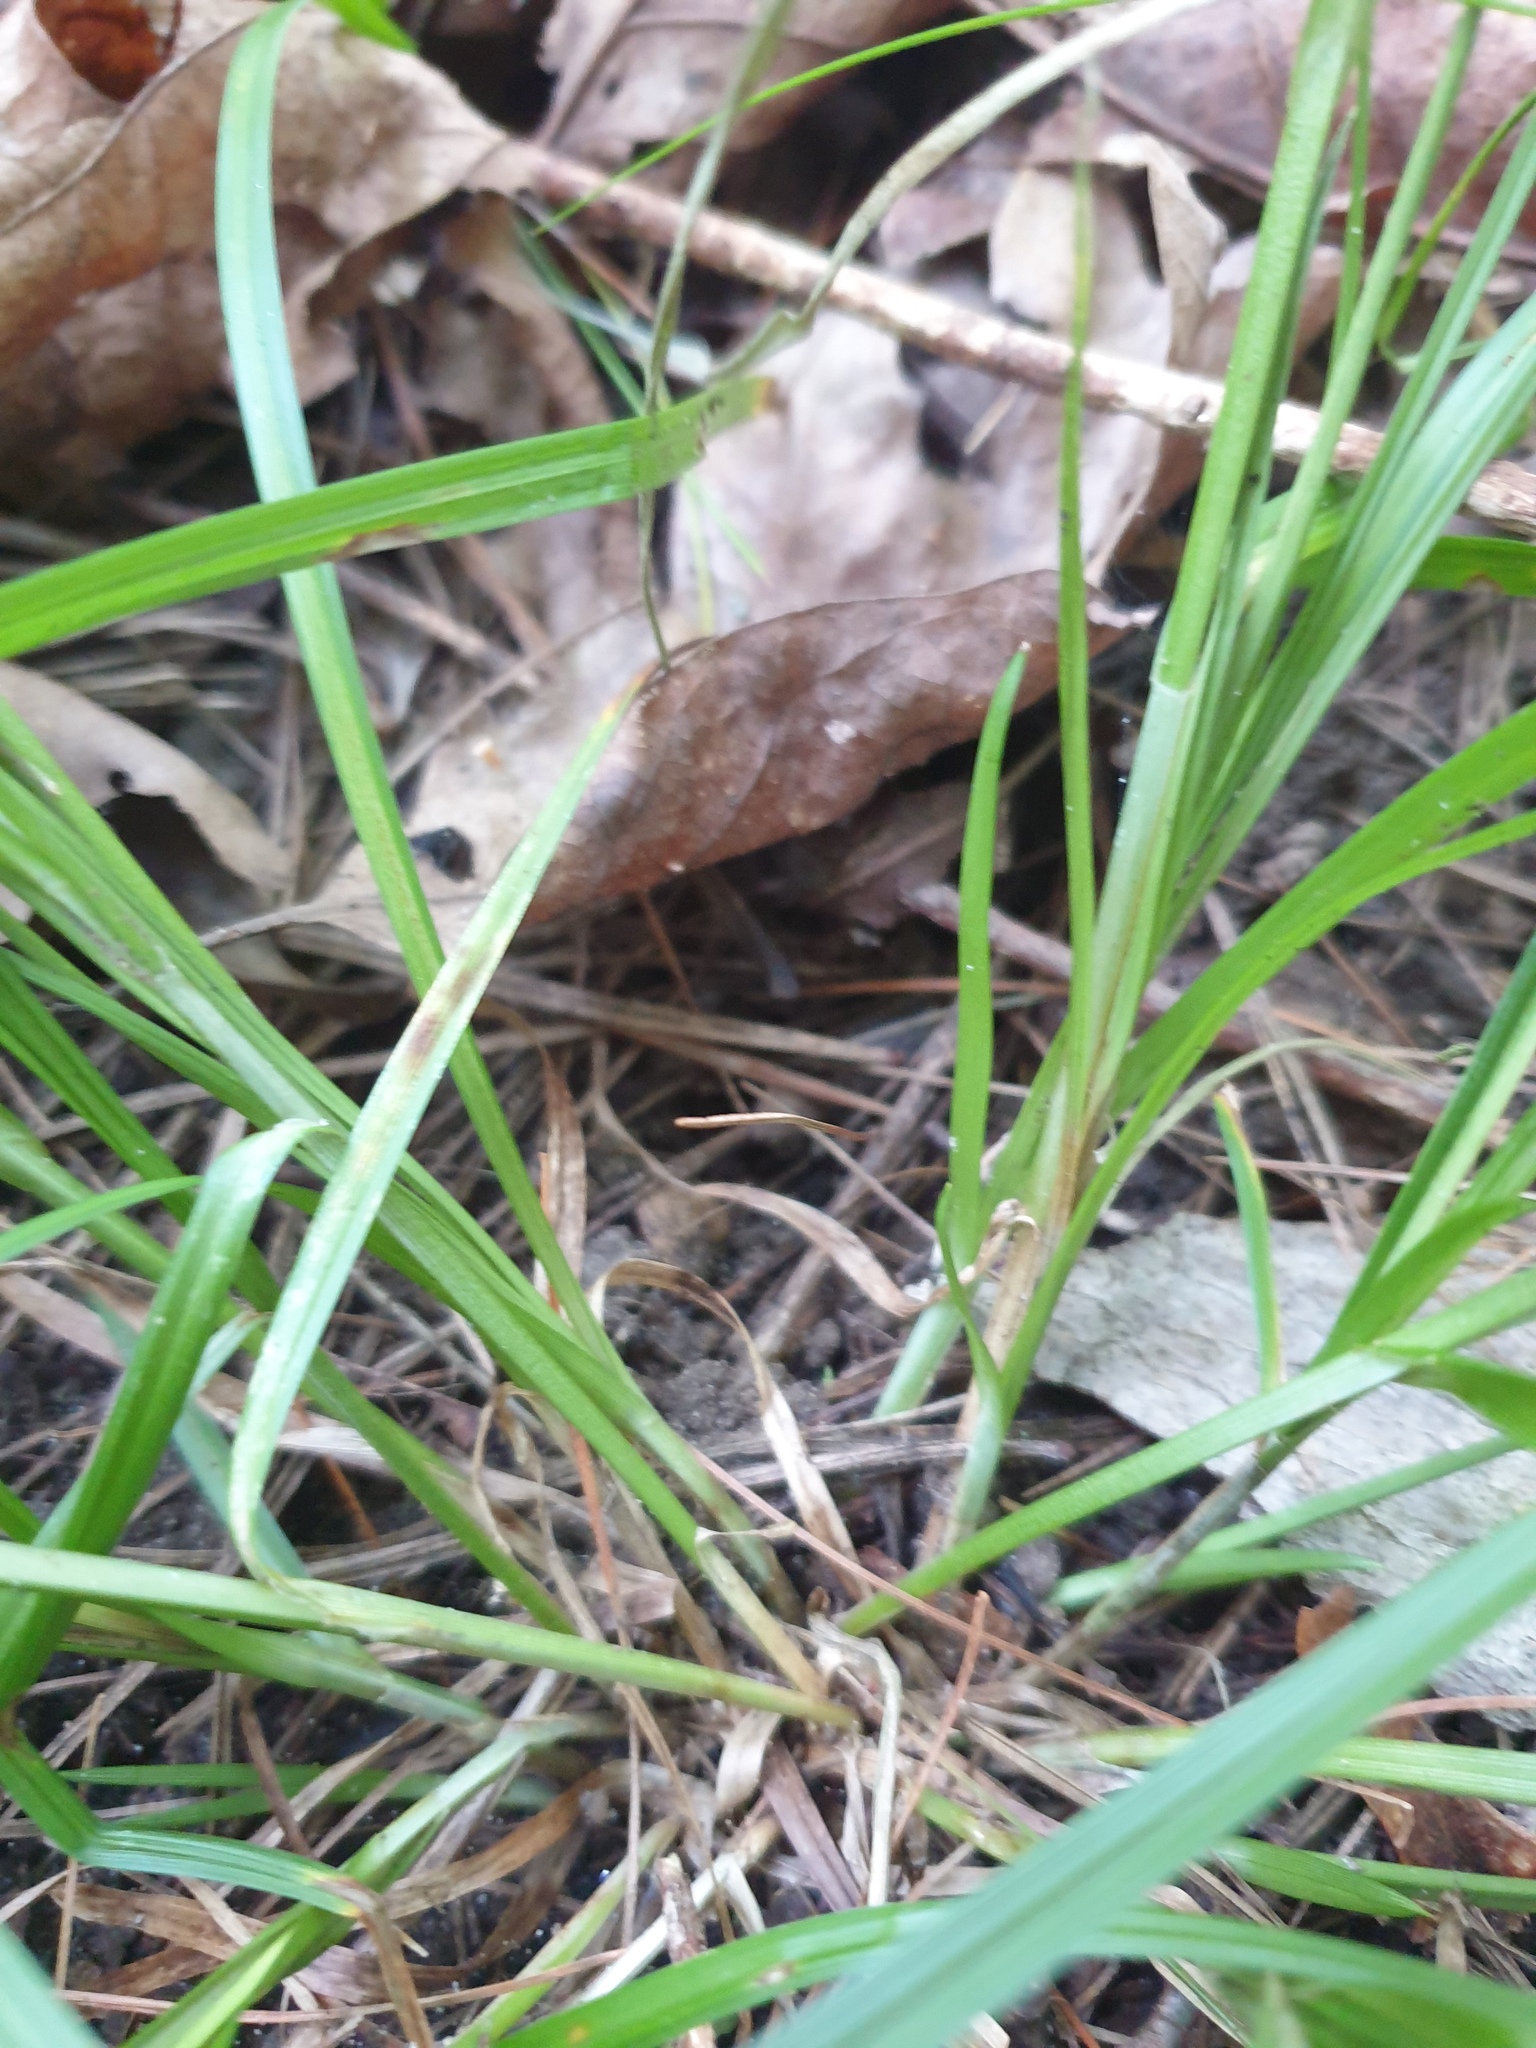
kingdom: Plantae
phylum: Tracheophyta
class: Liliopsida
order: Poales
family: Cyperaceae
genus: Carex
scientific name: Carex sparganioides
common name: Burreed sedge
